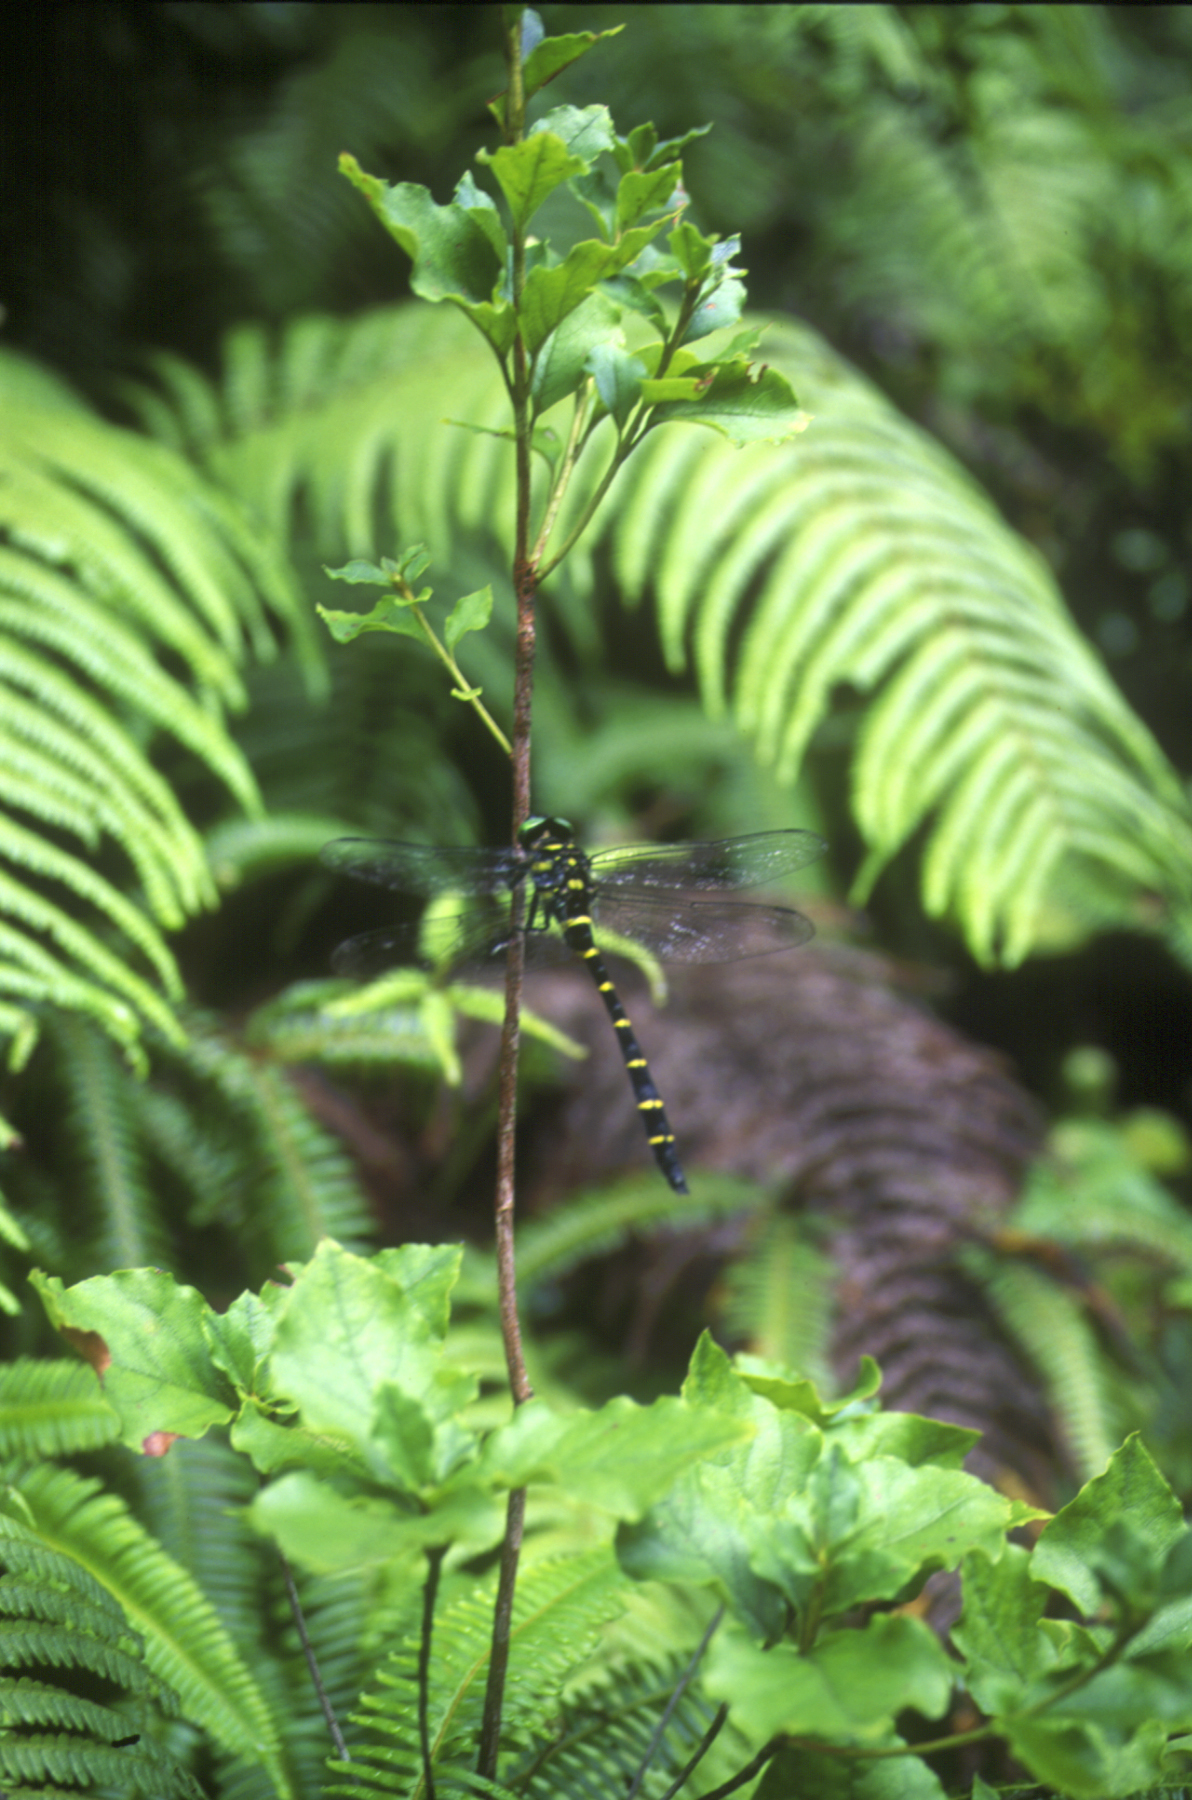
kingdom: Animalia
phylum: Arthropoda
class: Insecta
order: Odonata
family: Cordulegastridae
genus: Anotogaster
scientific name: Anotogaster sieboldii
